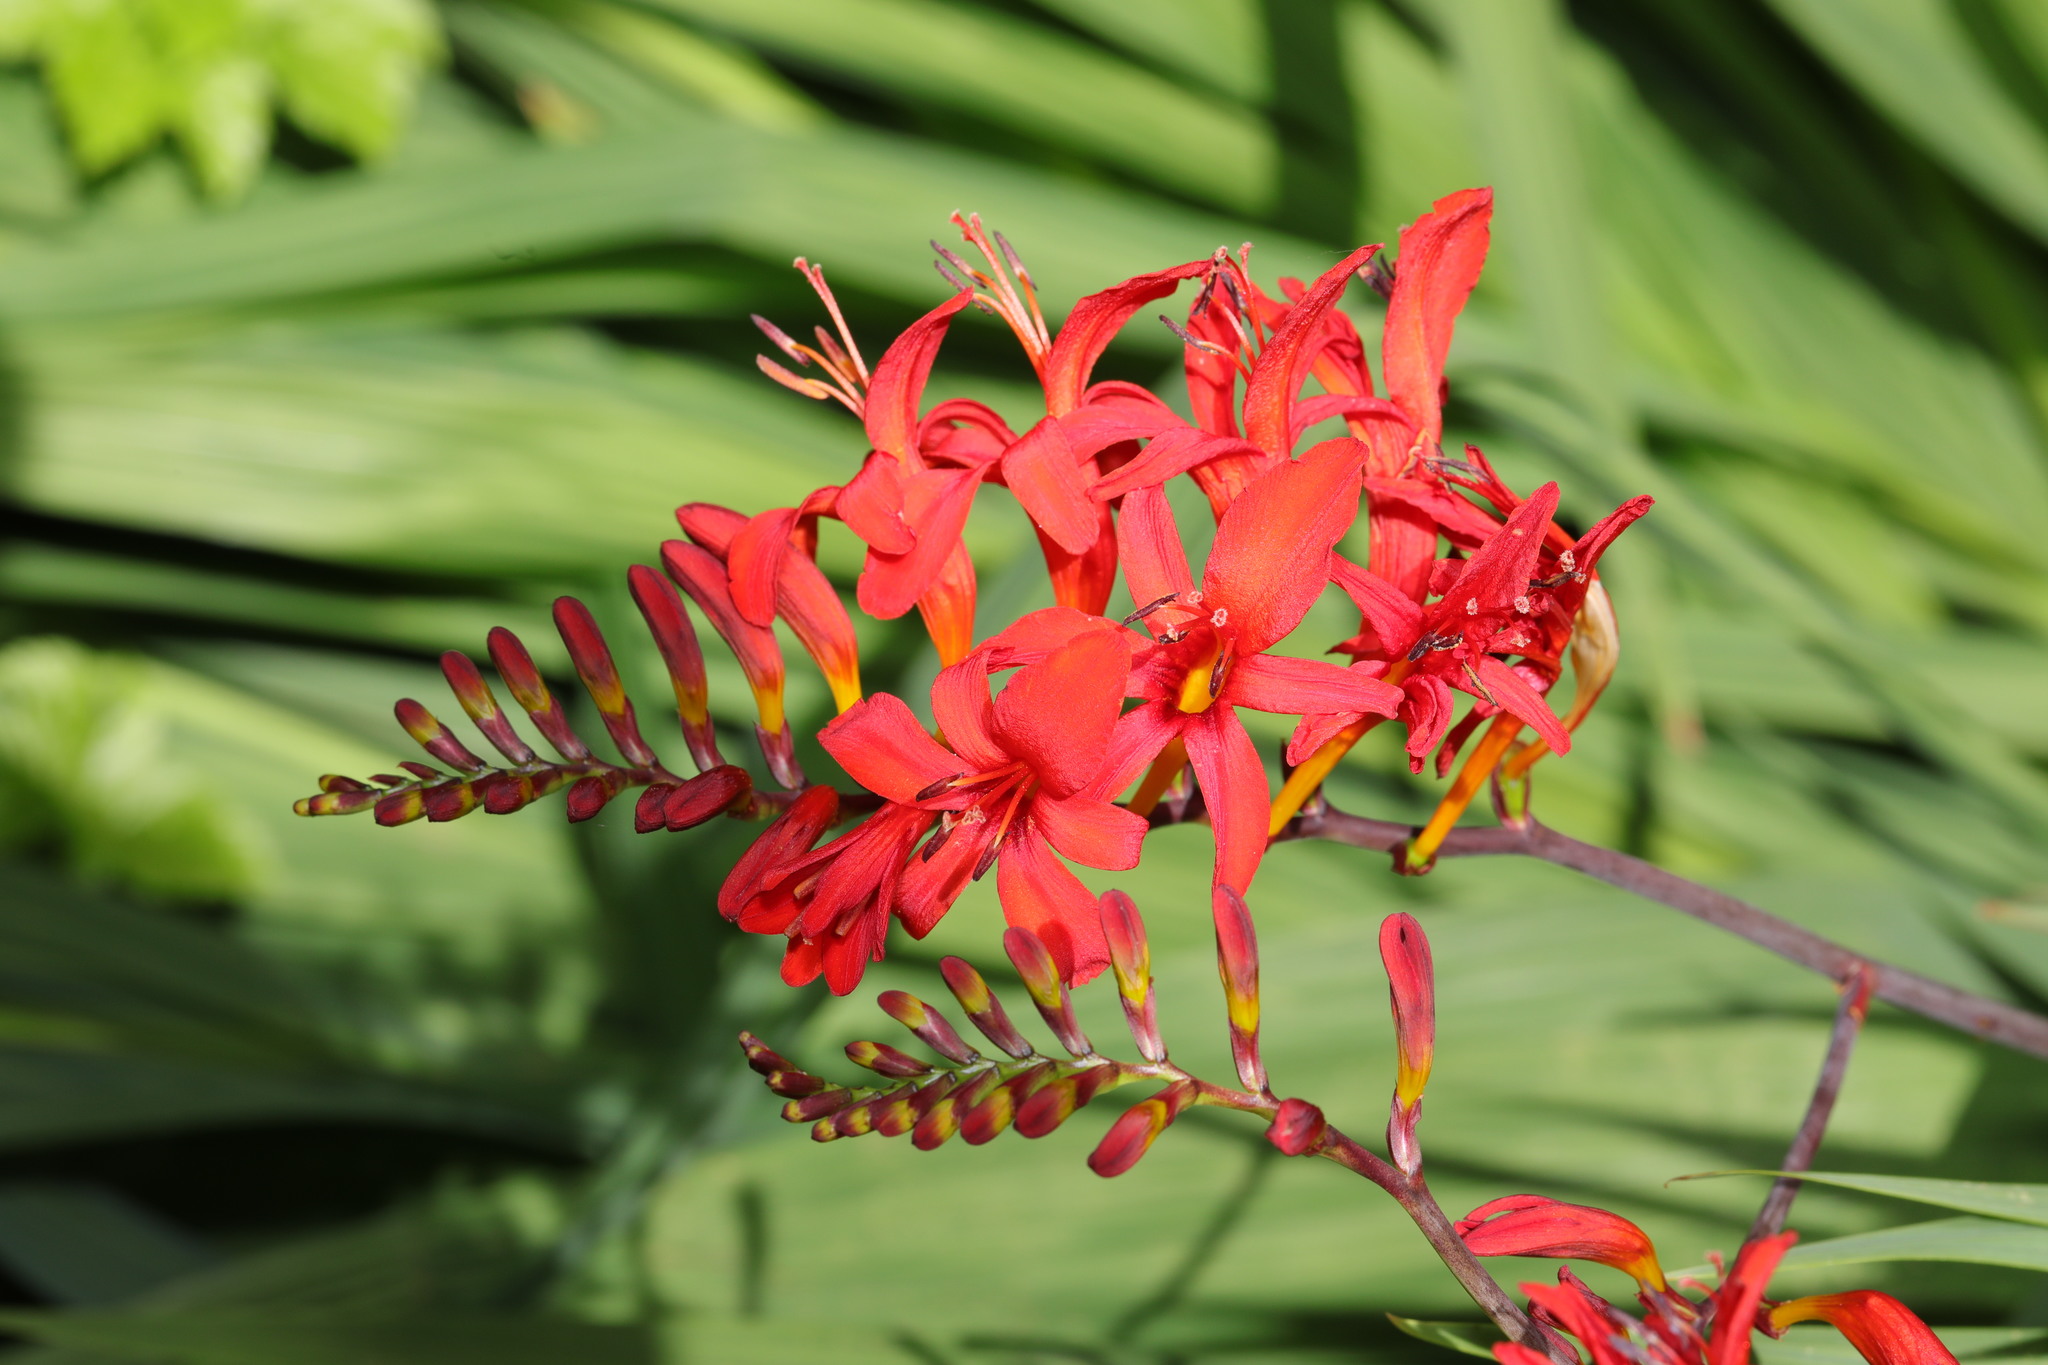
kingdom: Plantae
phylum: Tracheophyta
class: Liliopsida
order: Asparagales
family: Iridaceae
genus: Crocosmia
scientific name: Crocosmia
